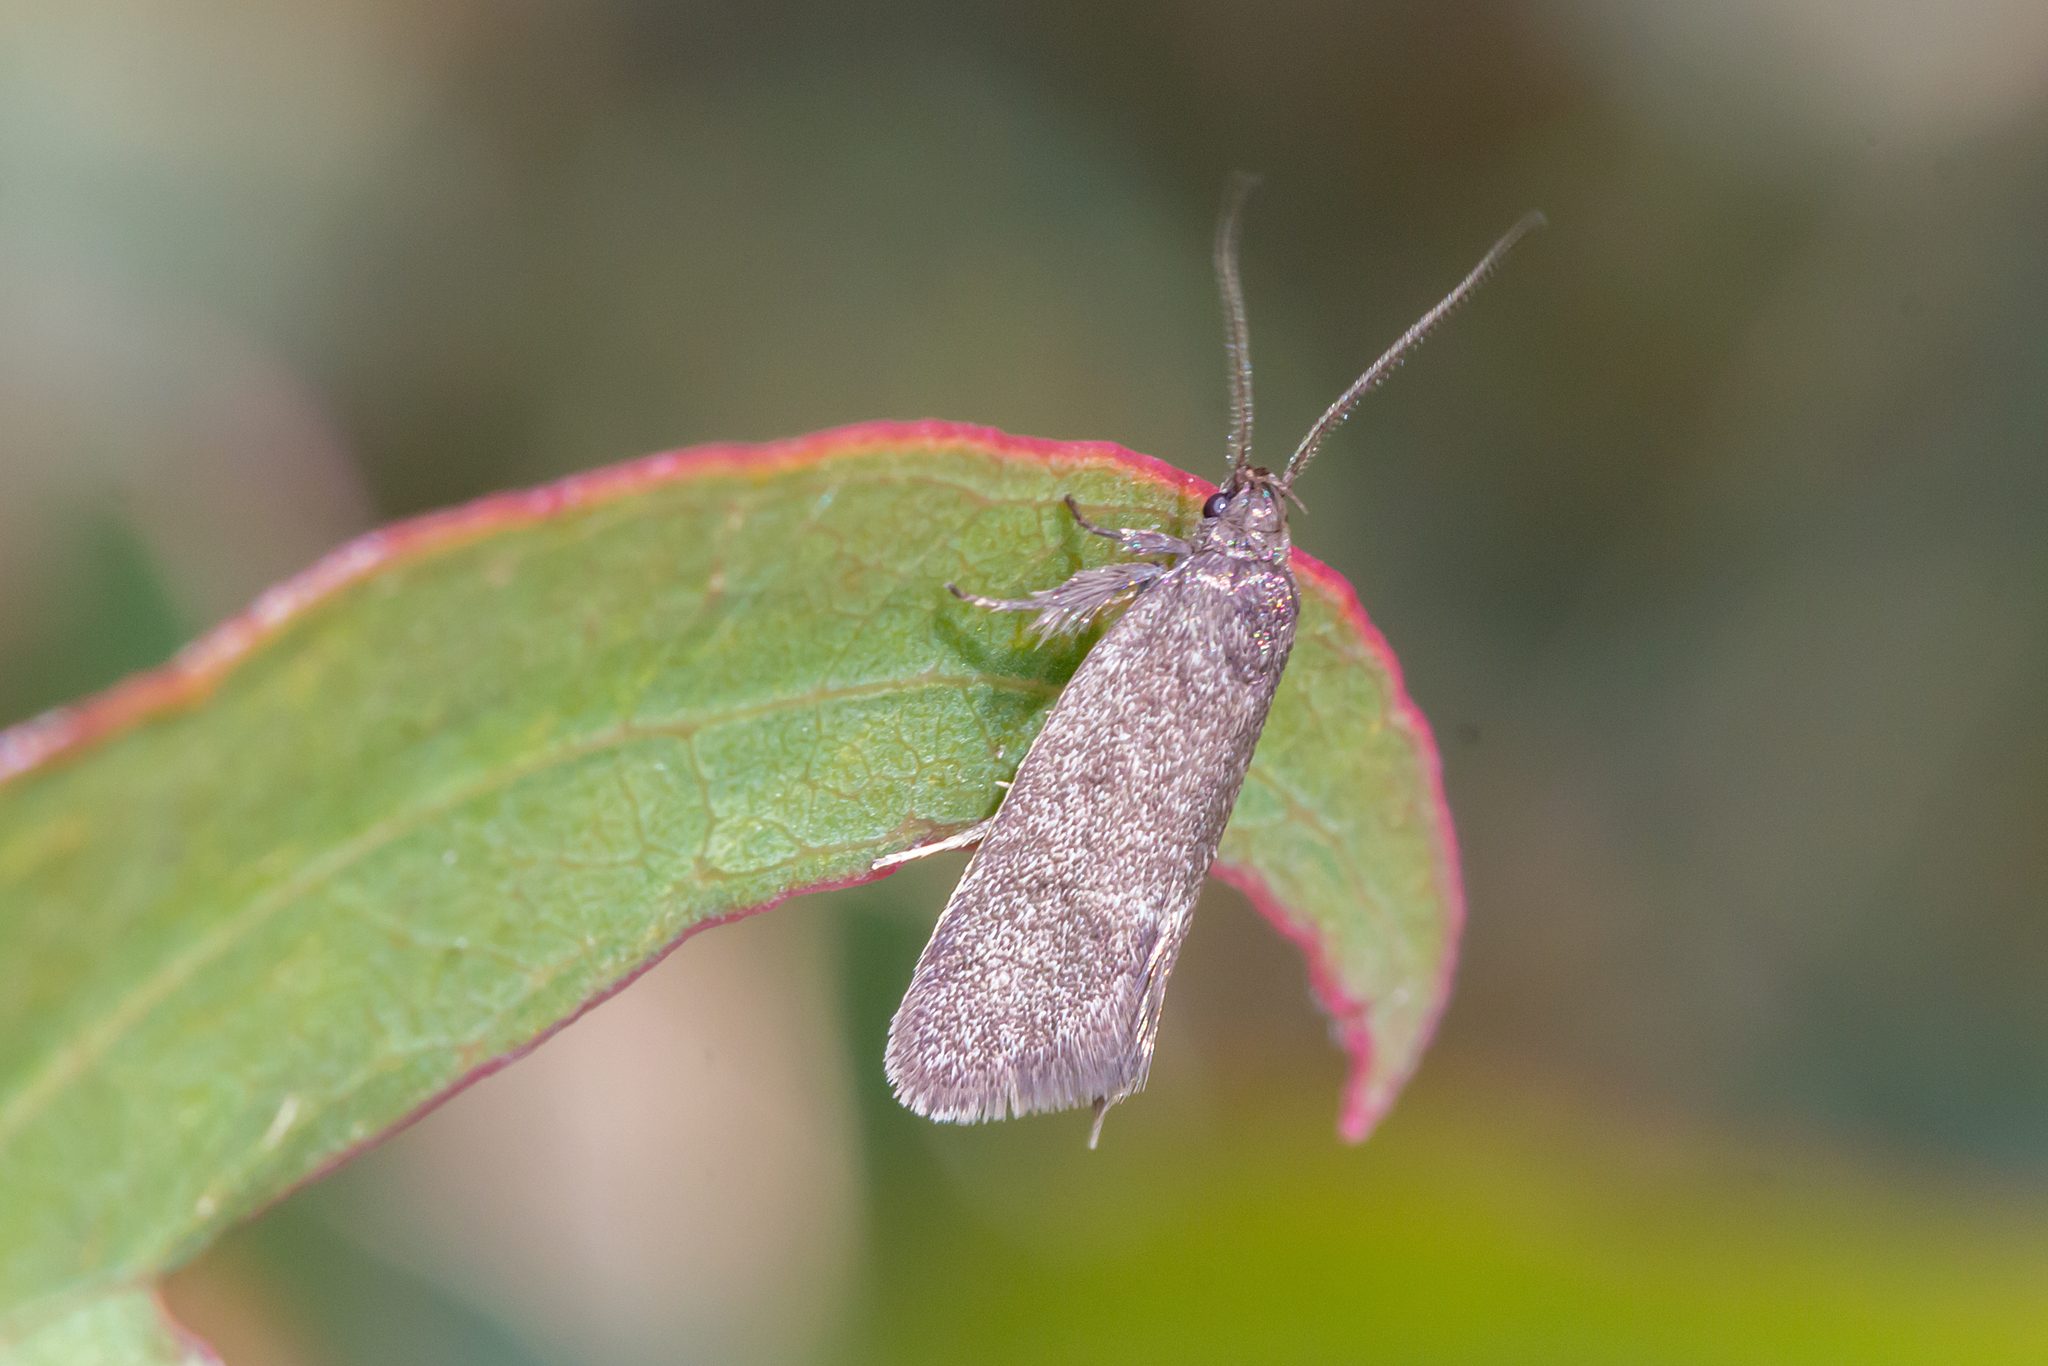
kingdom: Animalia
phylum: Arthropoda
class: Insecta
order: Lepidoptera
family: Oecophoridae
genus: Leistomorpha
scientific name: Leistomorpha brontoscopa
